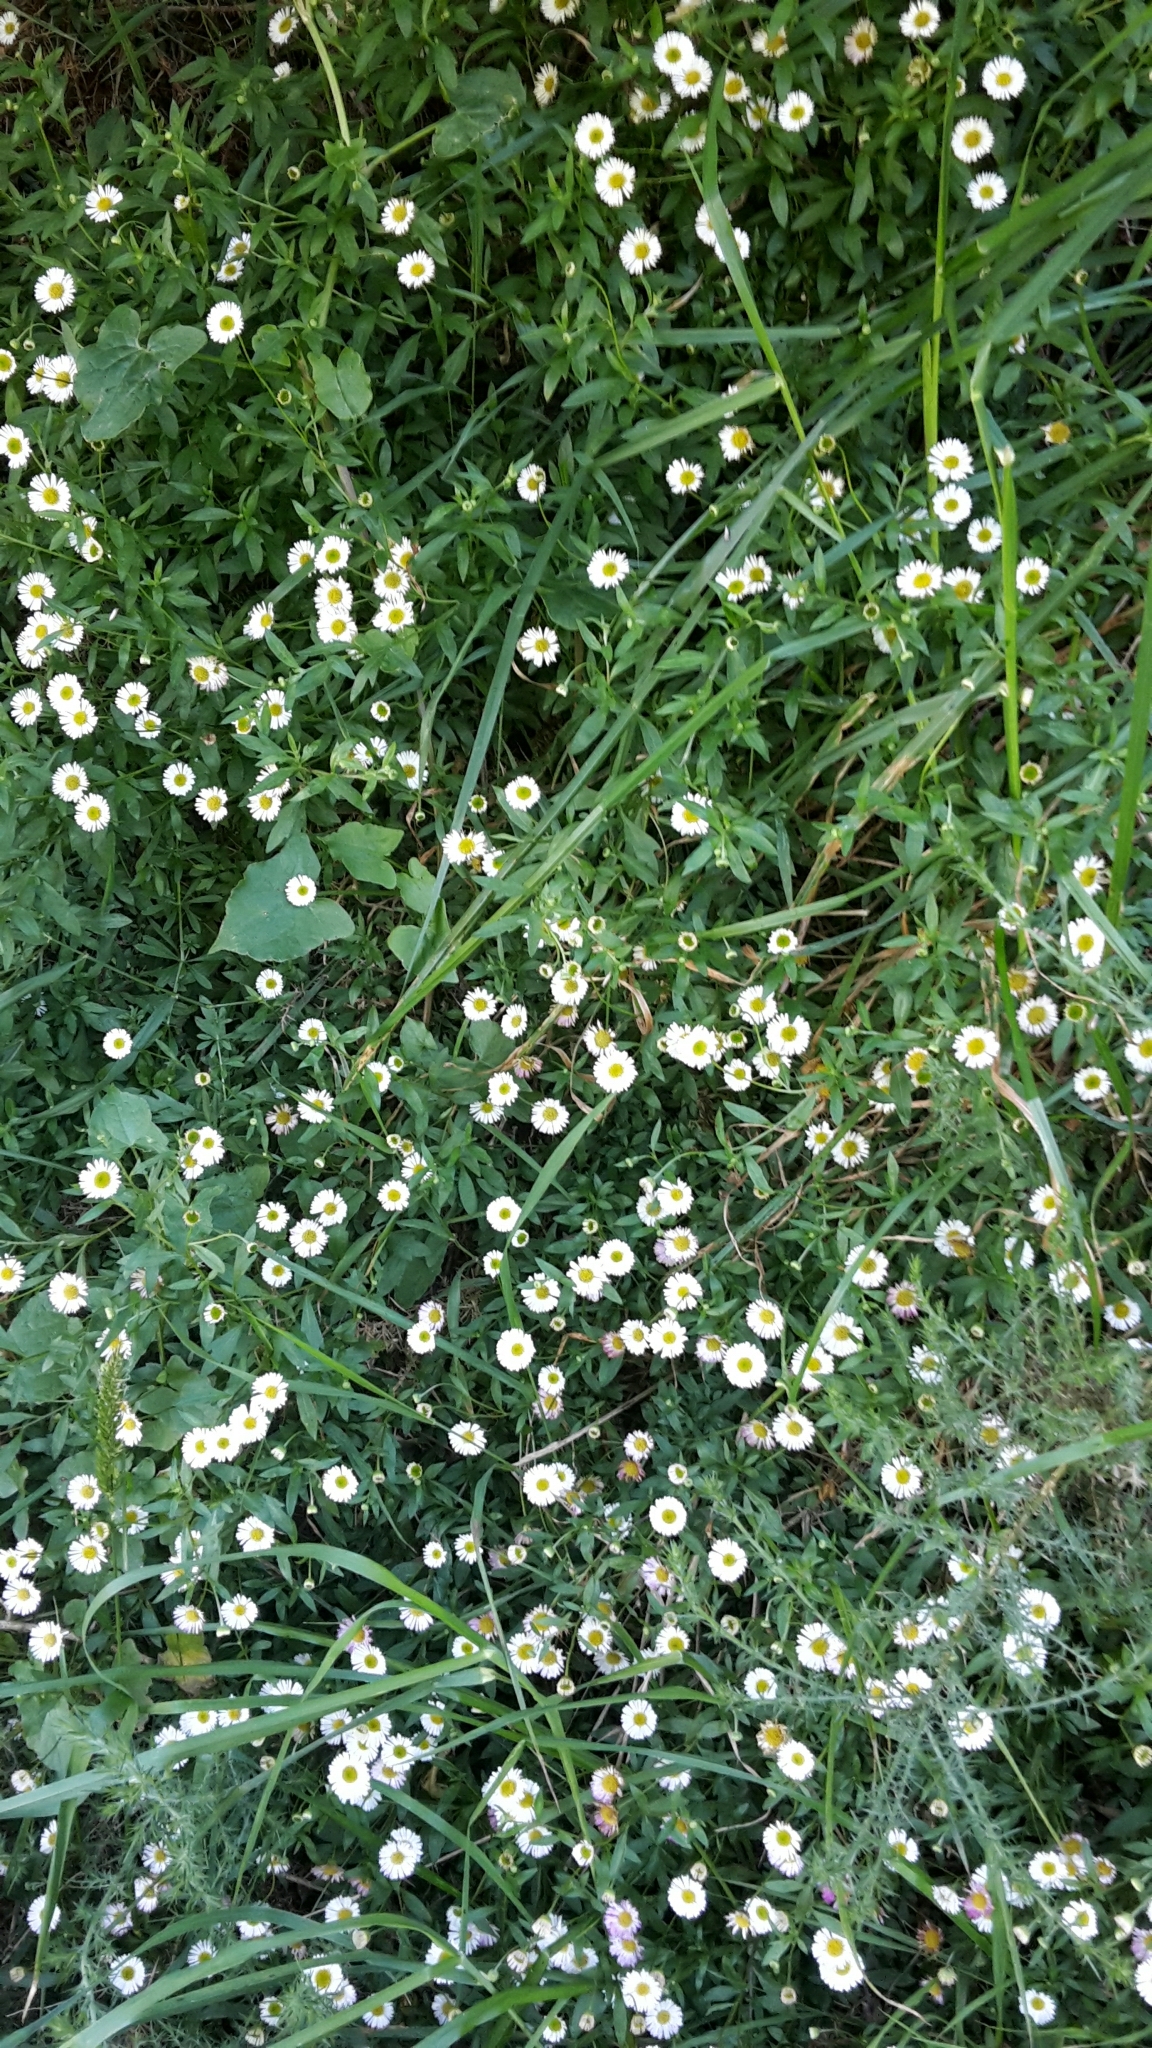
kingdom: Plantae
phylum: Tracheophyta
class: Magnoliopsida
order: Asterales
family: Asteraceae
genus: Erigeron
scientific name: Erigeron karvinskianus
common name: Mexican fleabane
